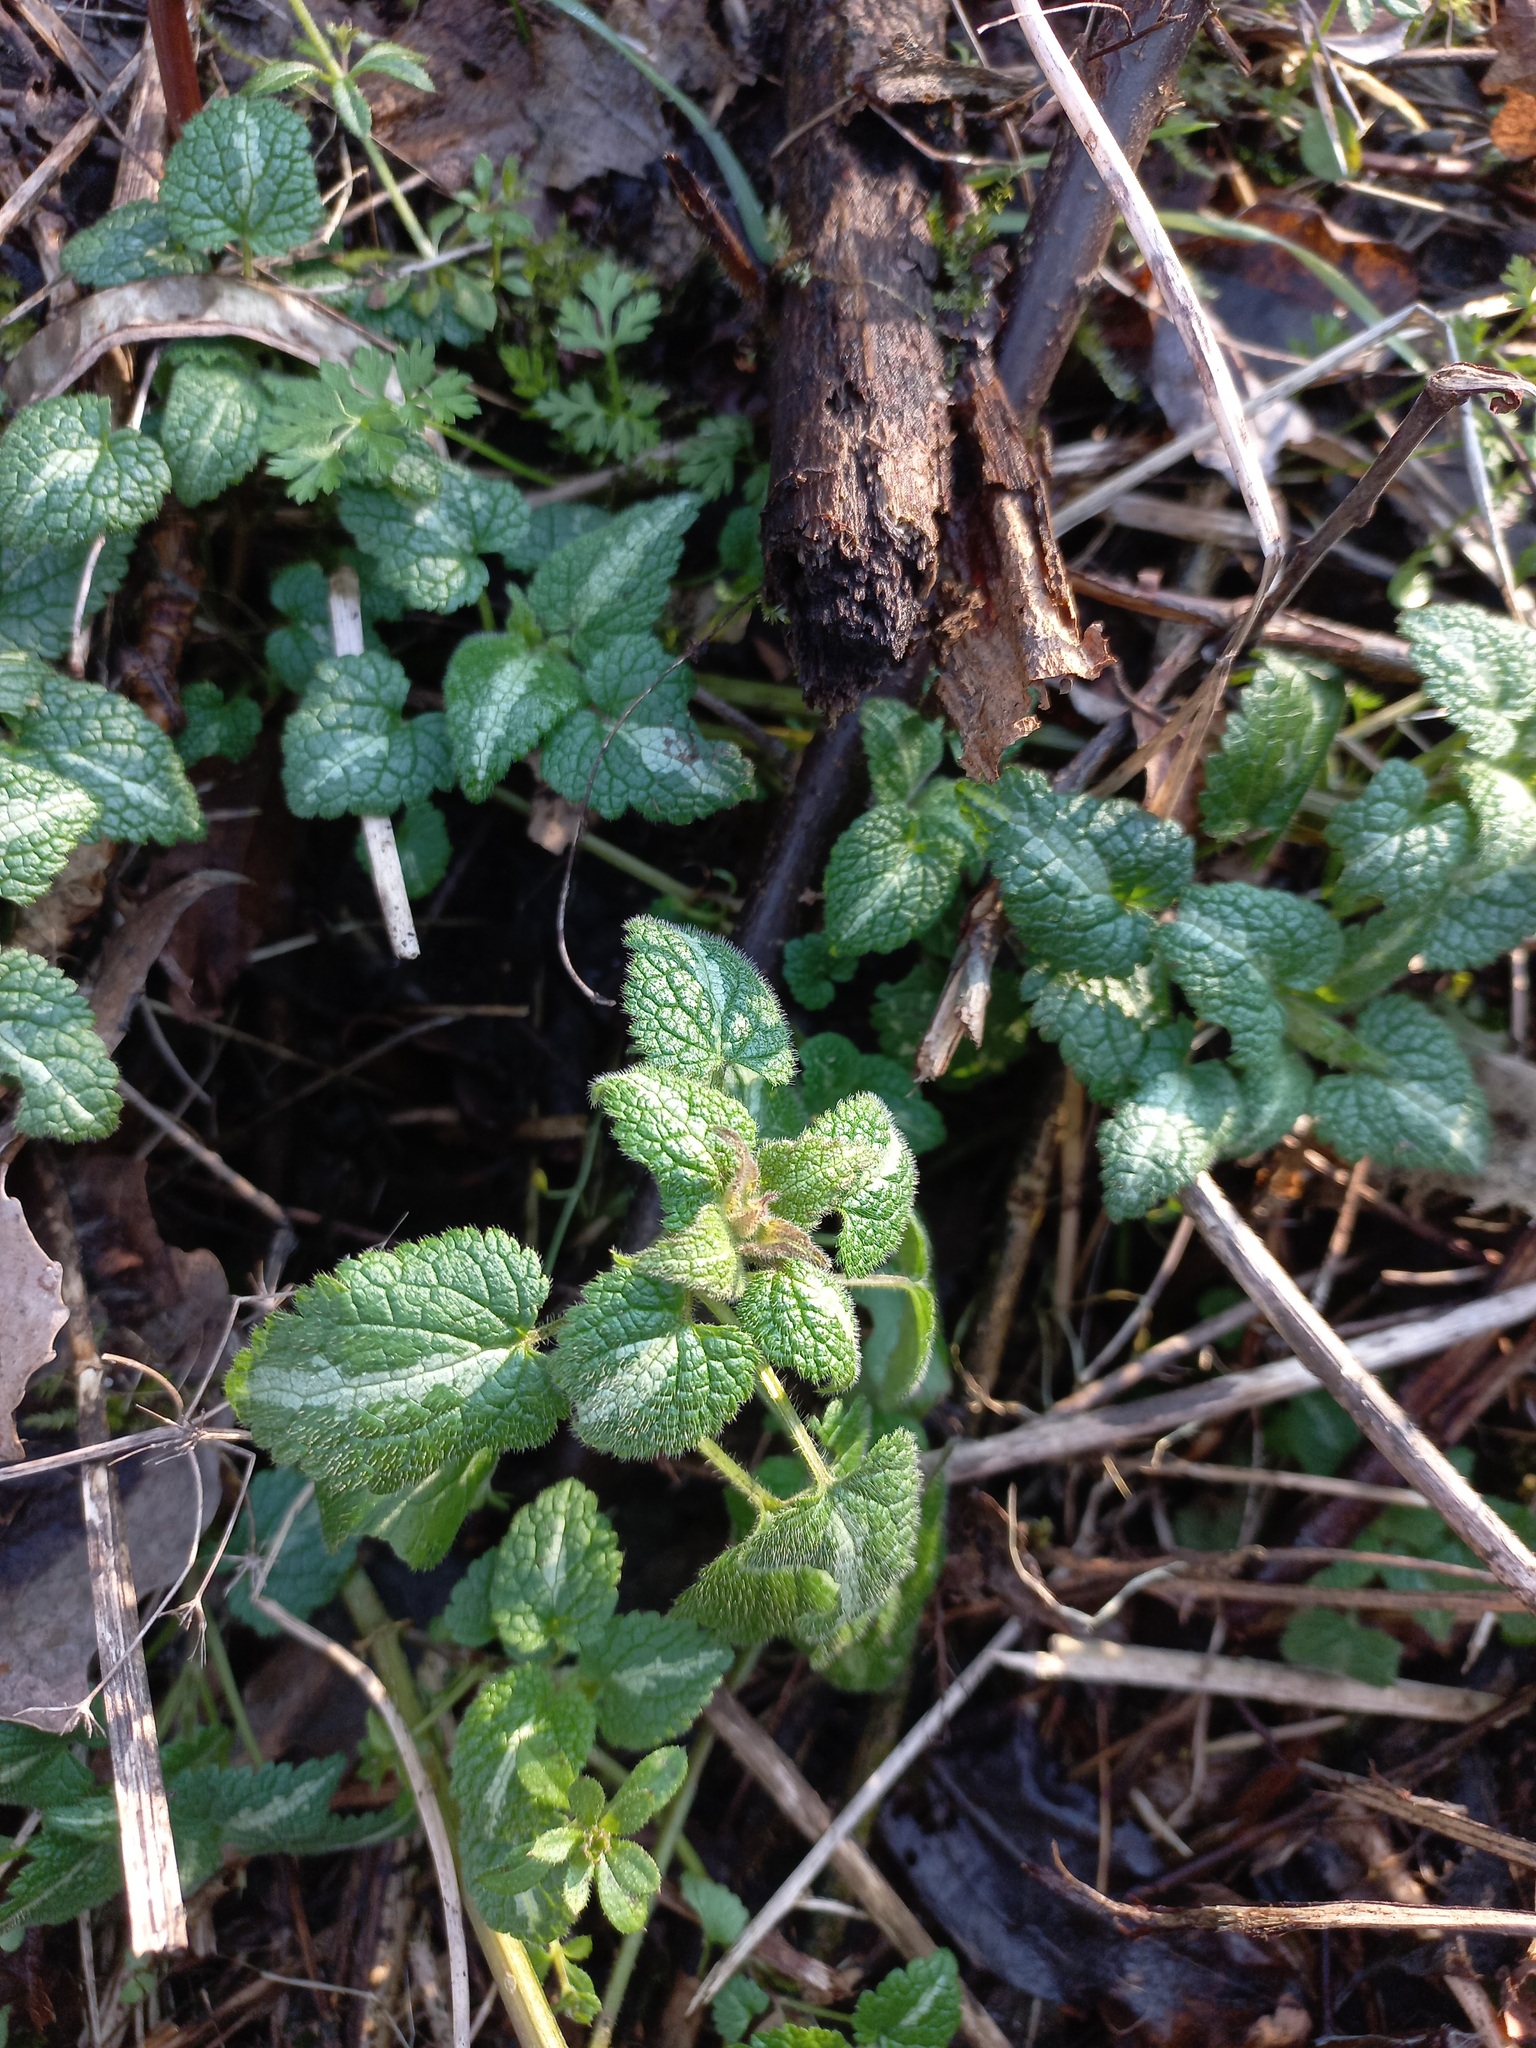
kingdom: Plantae
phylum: Tracheophyta
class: Magnoliopsida
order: Lamiales
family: Lamiaceae
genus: Lamium
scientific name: Lamium maculatum
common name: Spotted dead-nettle
